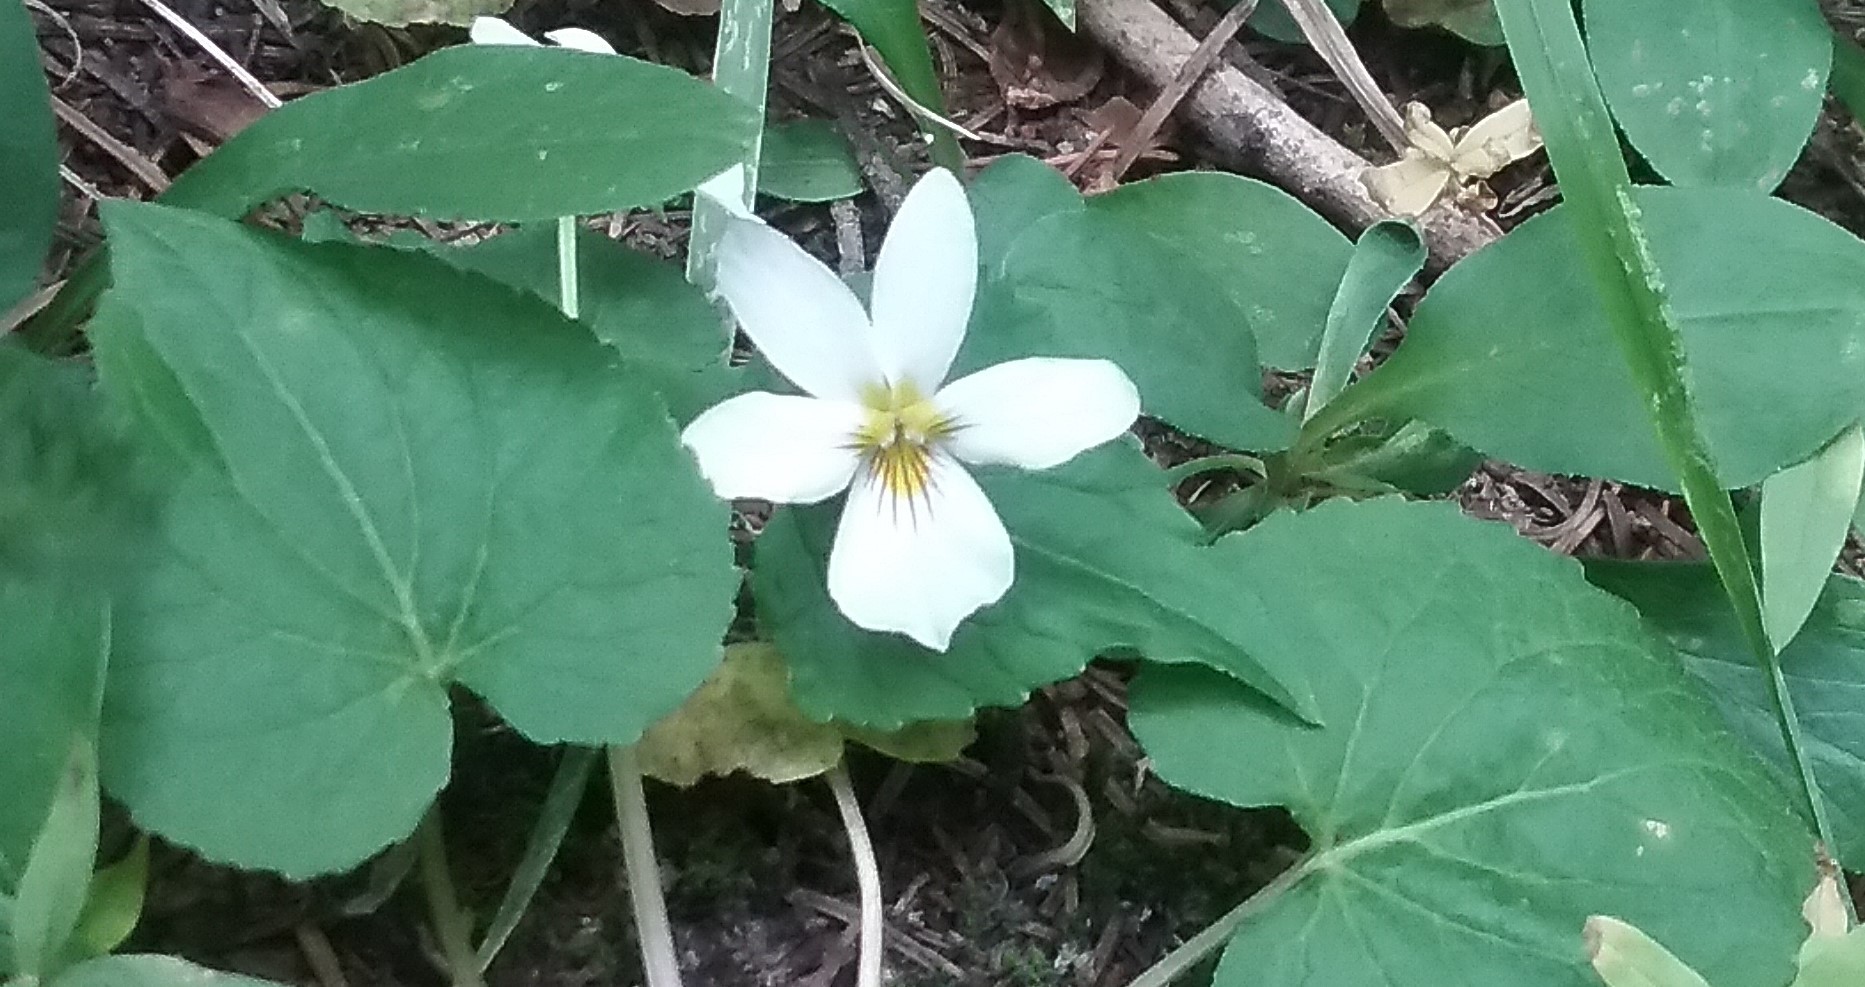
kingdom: Plantae
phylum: Tracheophyta
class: Magnoliopsida
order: Malpighiales
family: Violaceae
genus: Viola
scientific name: Viola canadensis
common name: Canada violet
